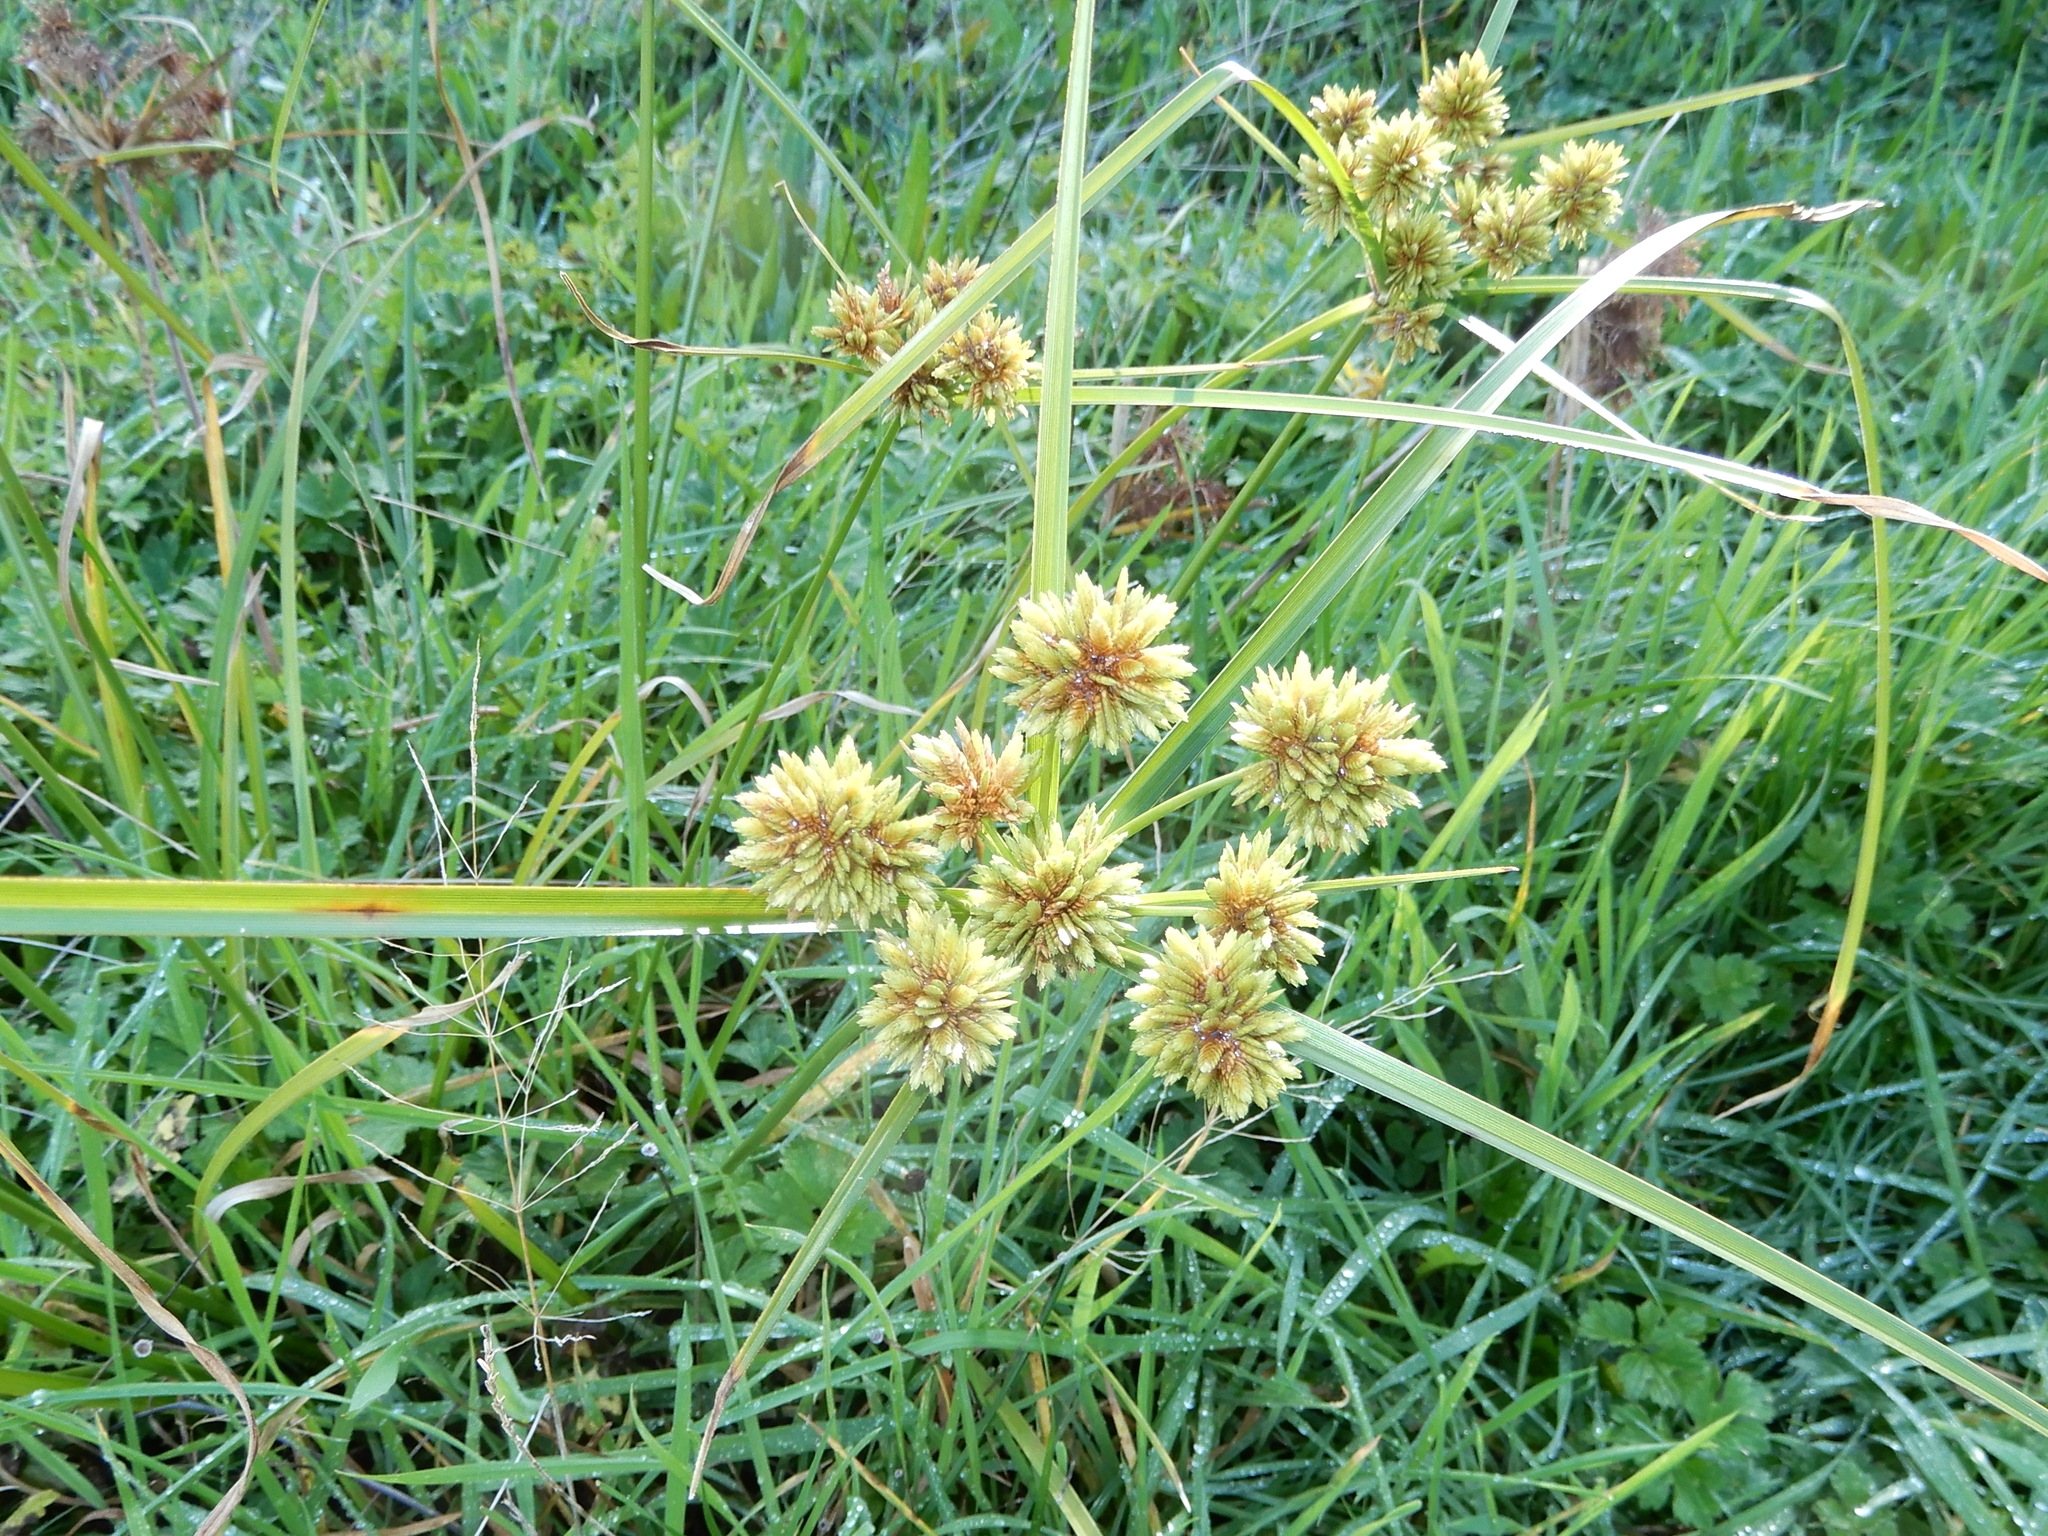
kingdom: Plantae
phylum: Tracheophyta
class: Liliopsida
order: Poales
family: Cyperaceae
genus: Cyperus
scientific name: Cyperus eragrostis
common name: Tall flatsedge
